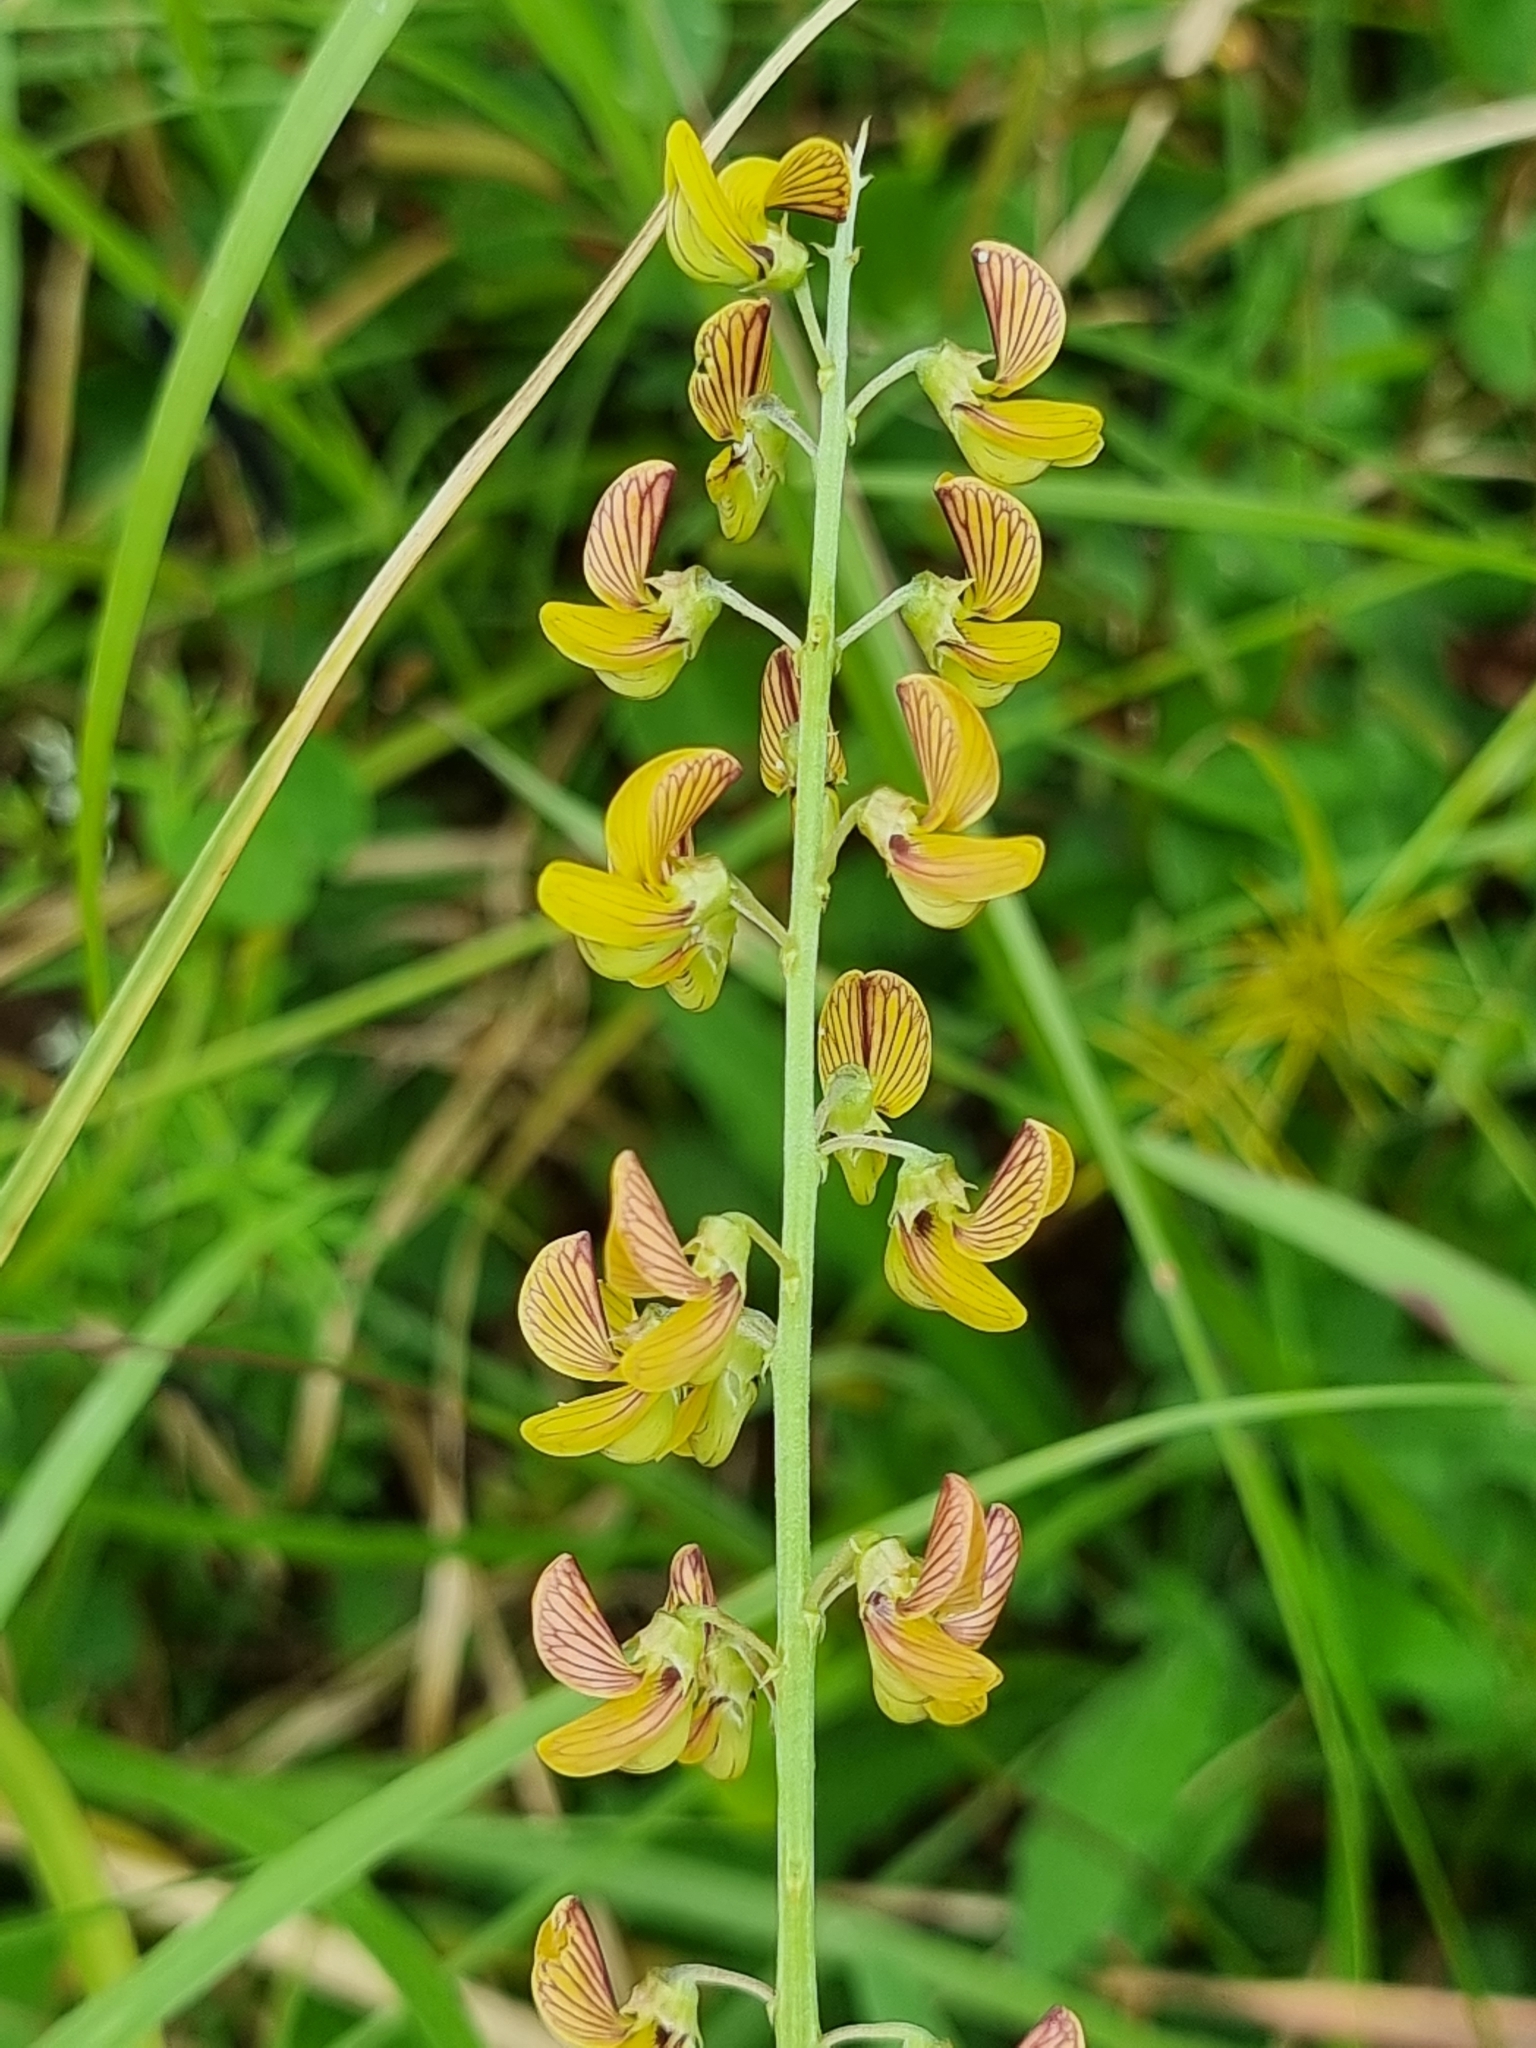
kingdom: Plantae
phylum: Tracheophyta
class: Magnoliopsida
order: Fabales
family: Fabaceae
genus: Crotalaria
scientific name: Crotalaria lanceolata
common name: Lanceleaf rattlebox
